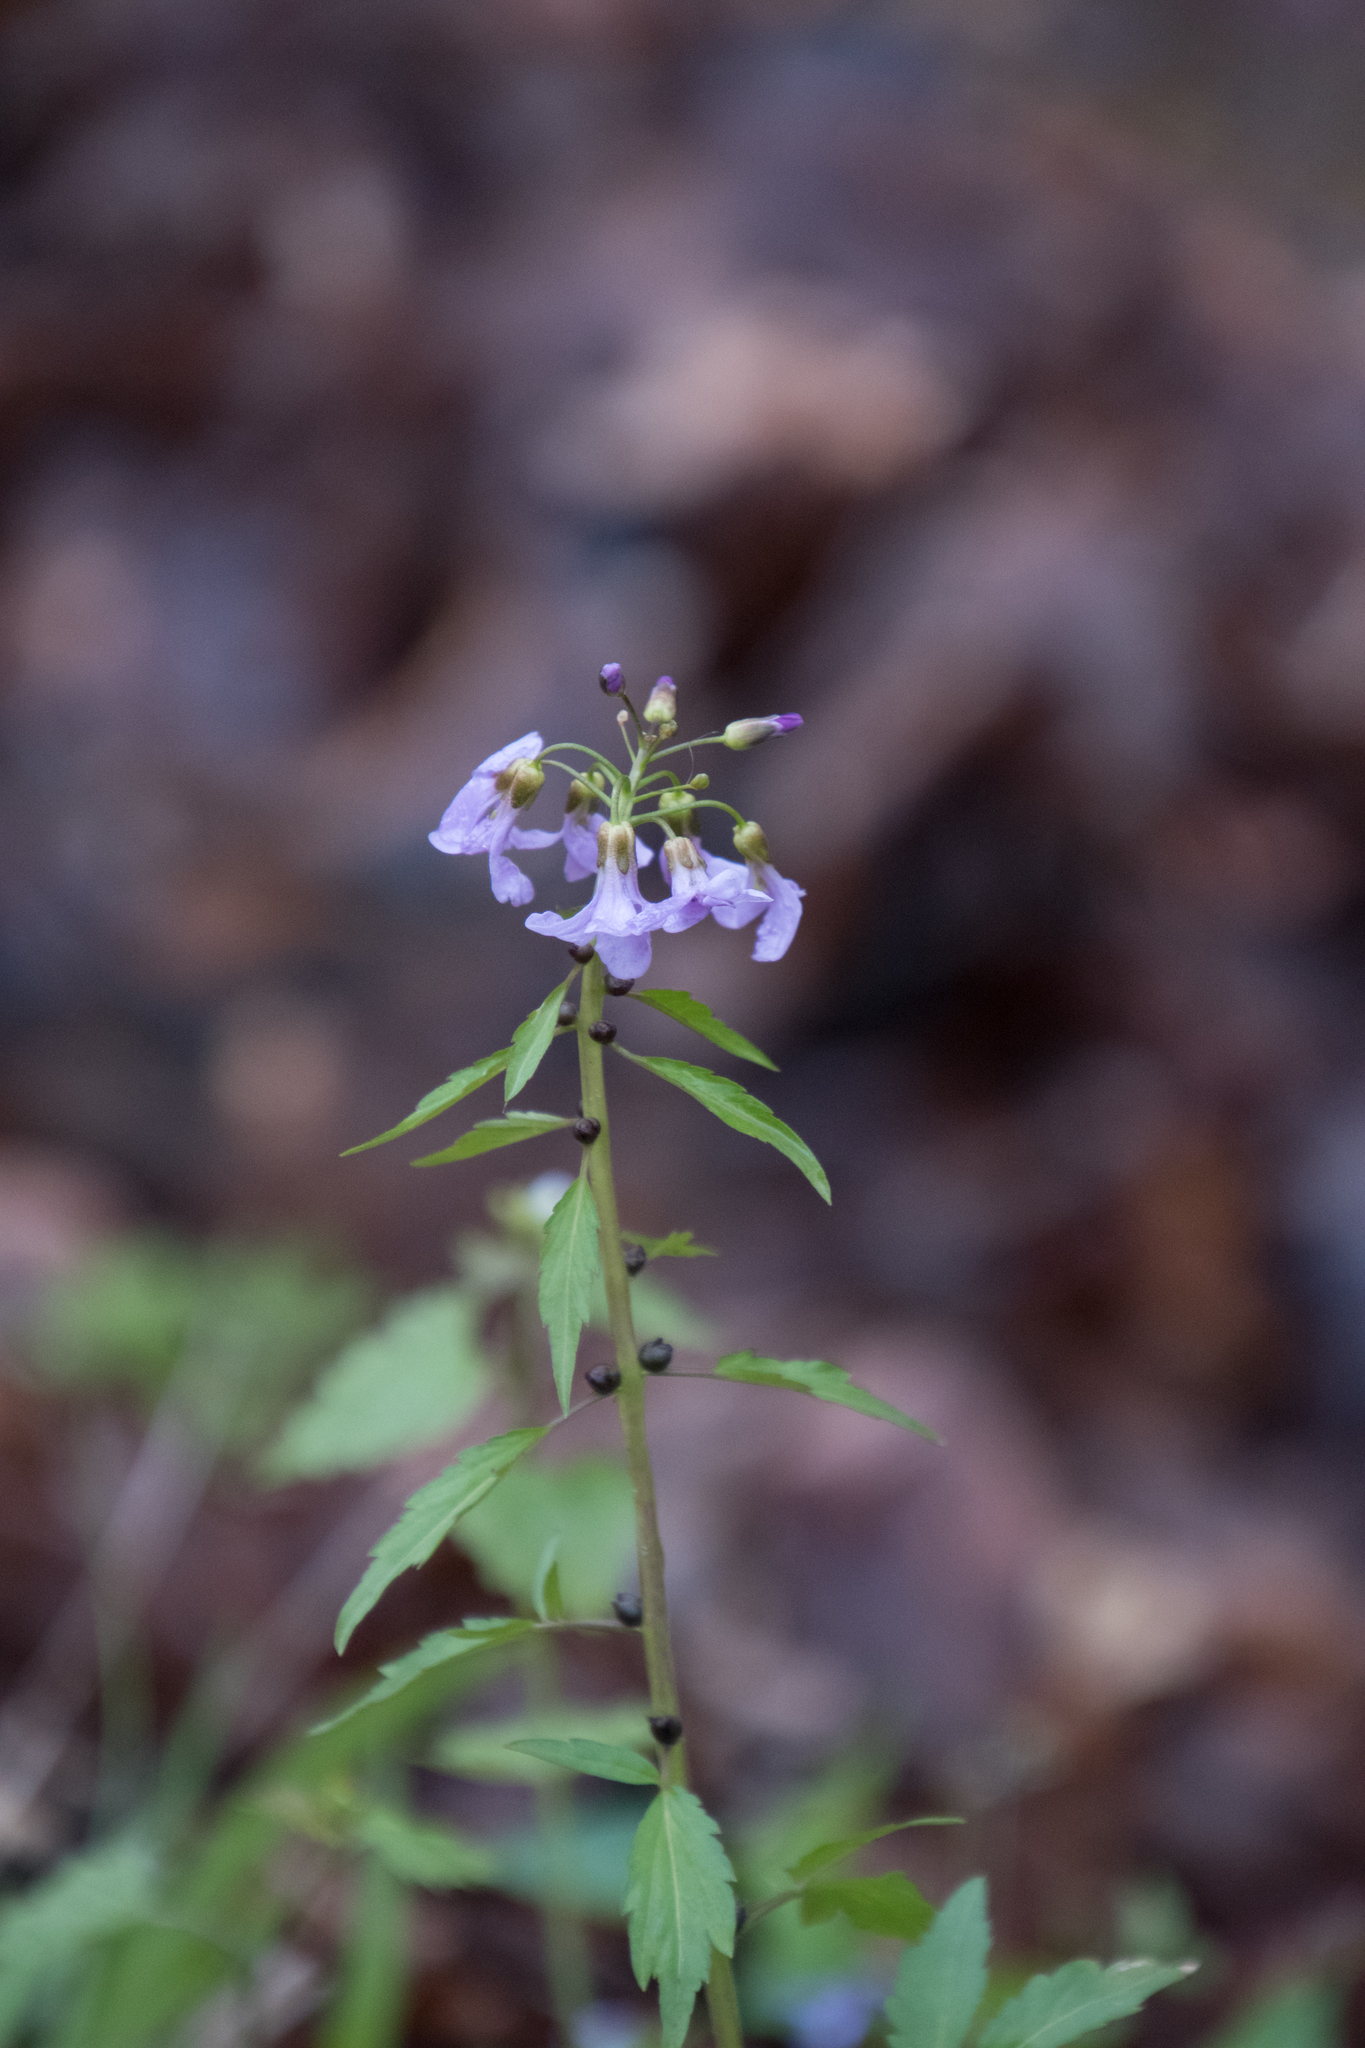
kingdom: Plantae
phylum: Tracheophyta
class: Magnoliopsida
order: Brassicales
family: Brassicaceae
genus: Cardamine
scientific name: Cardamine bulbifera
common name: Coralroot bittercress
